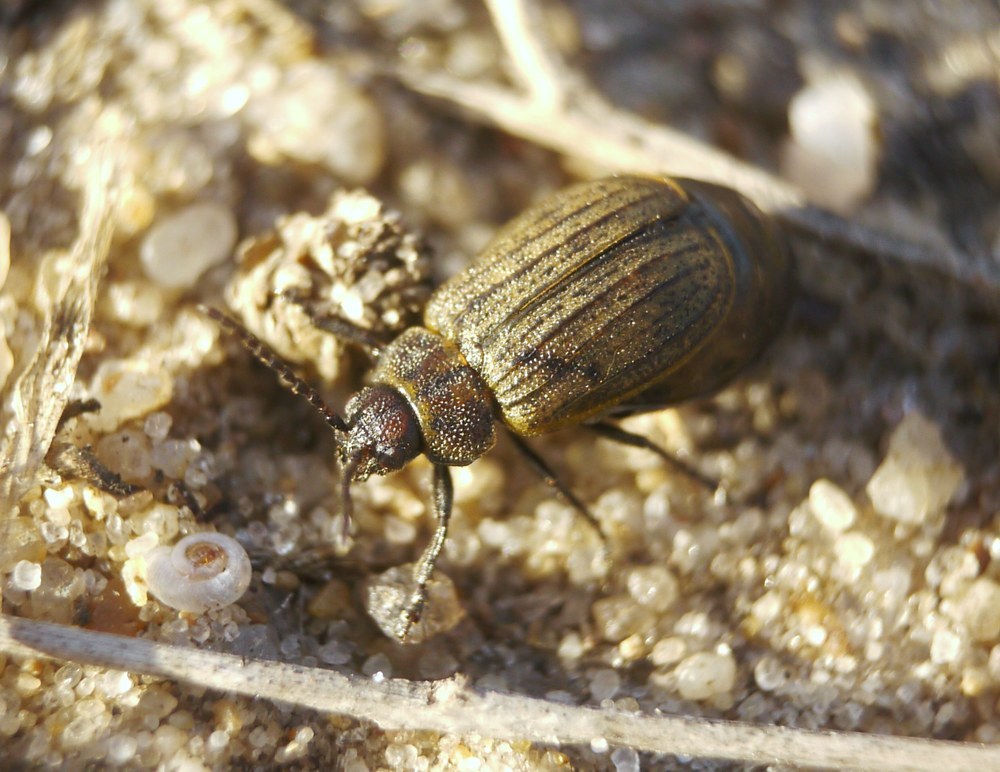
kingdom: Animalia
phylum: Arthropoda
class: Insecta
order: Coleoptera
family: Chrysomelidae
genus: Galeruca
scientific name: Galeruca interrupta
